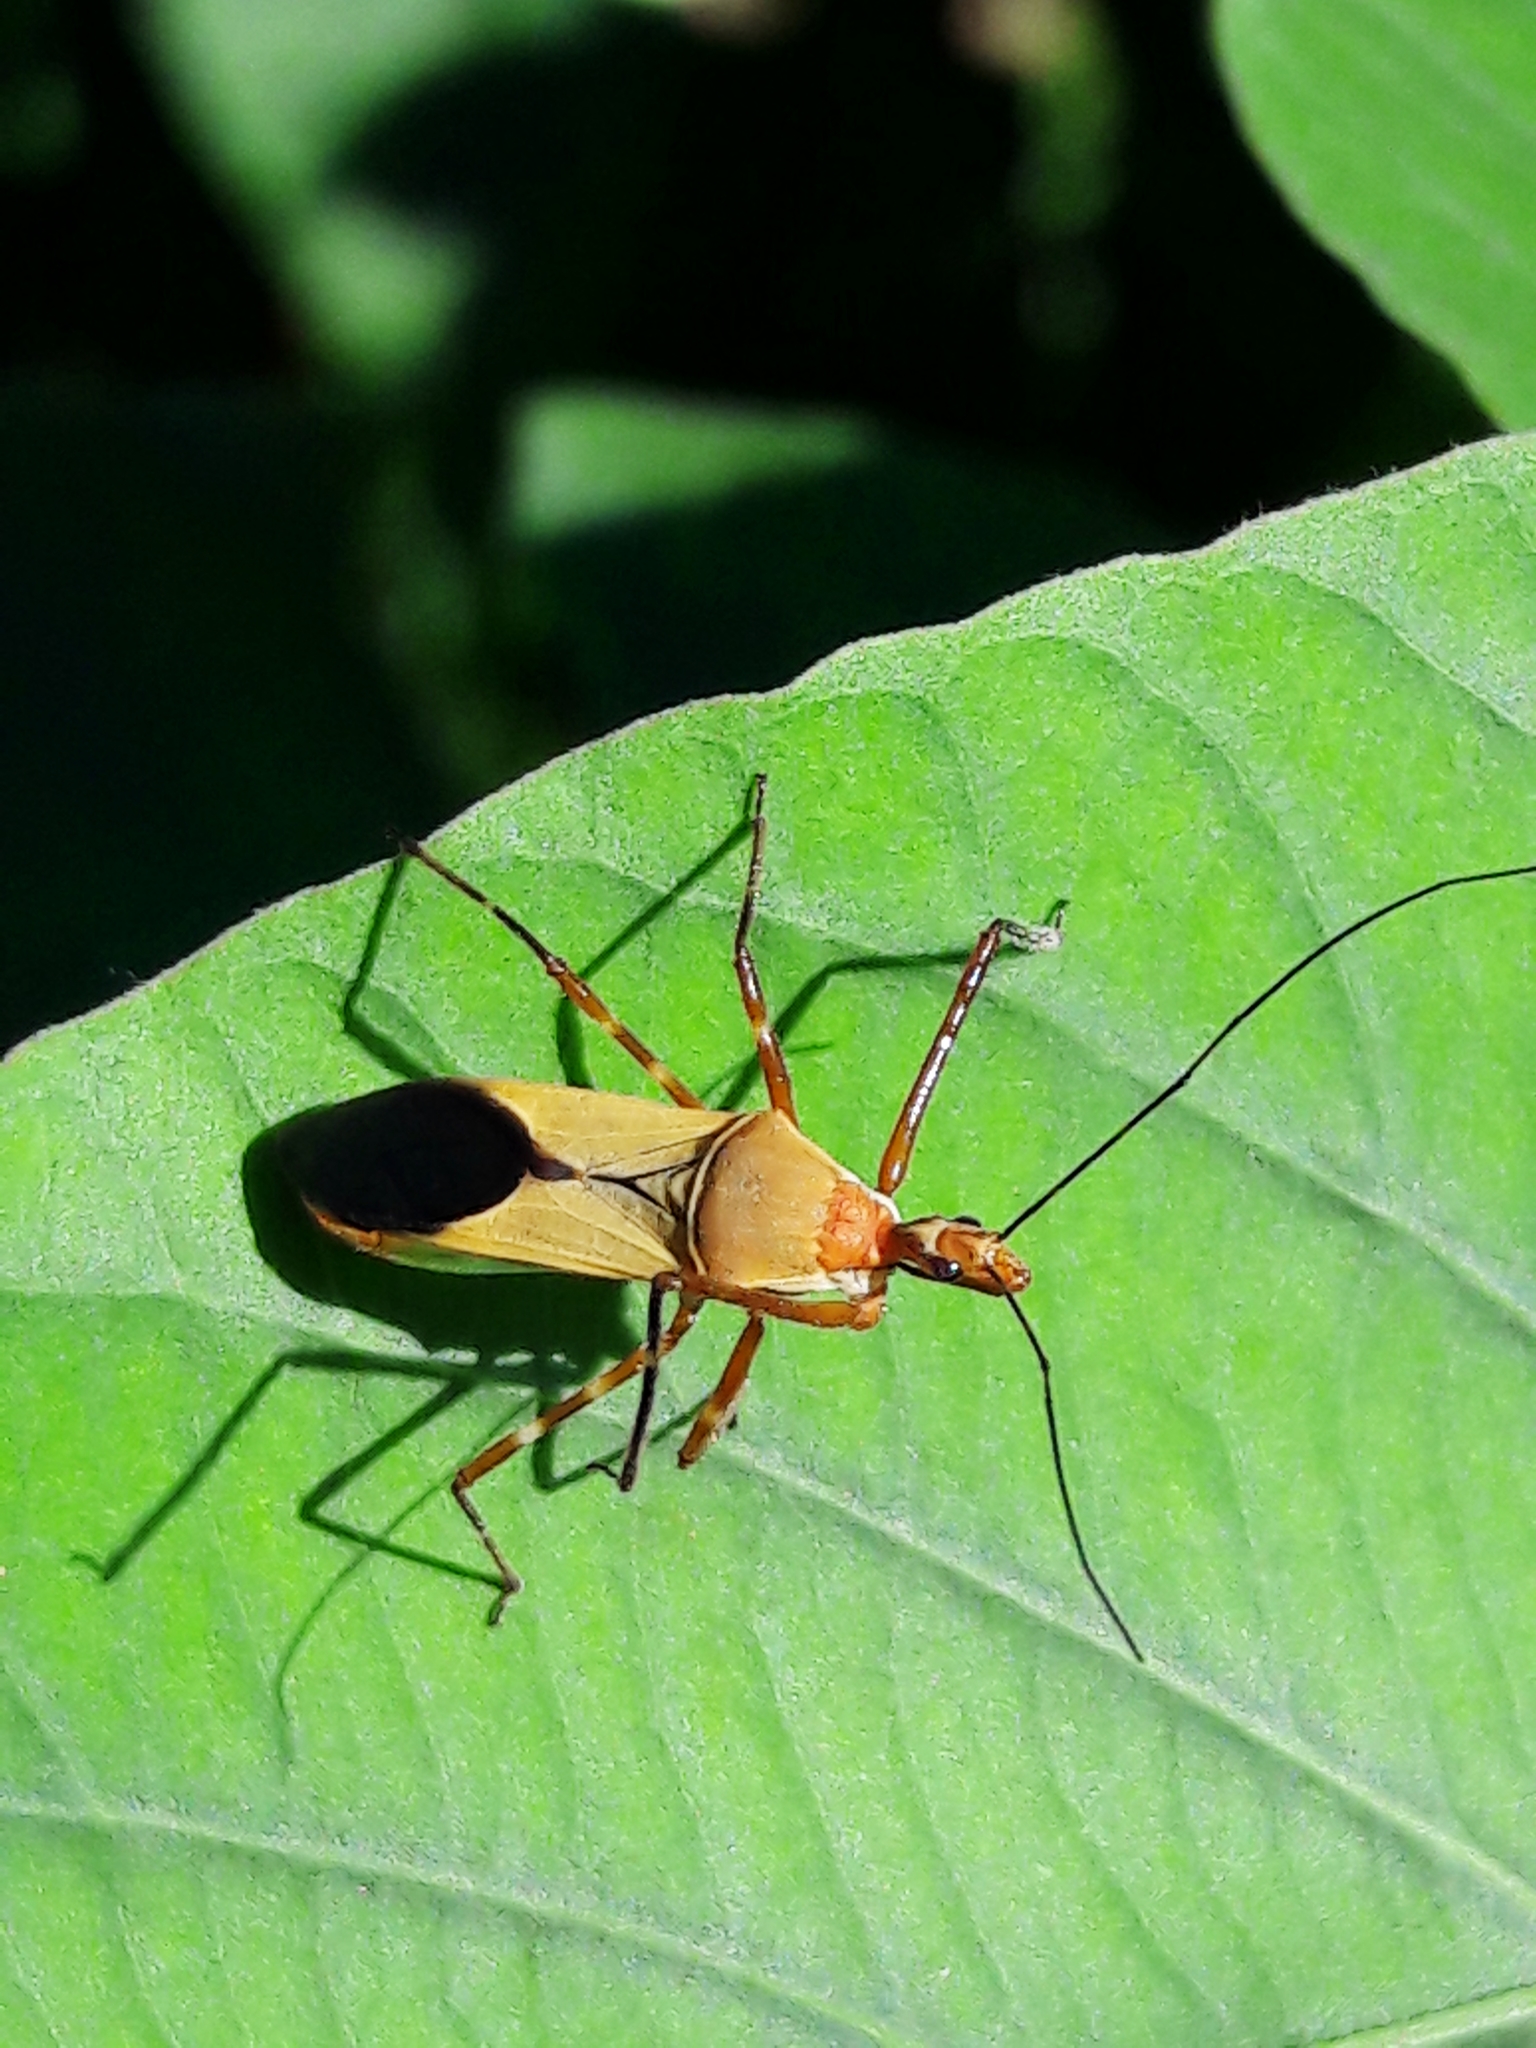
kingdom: Animalia
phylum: Arthropoda
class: Insecta
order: Hemiptera
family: Reduviidae
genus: Zelus
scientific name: Zelus laticornis
